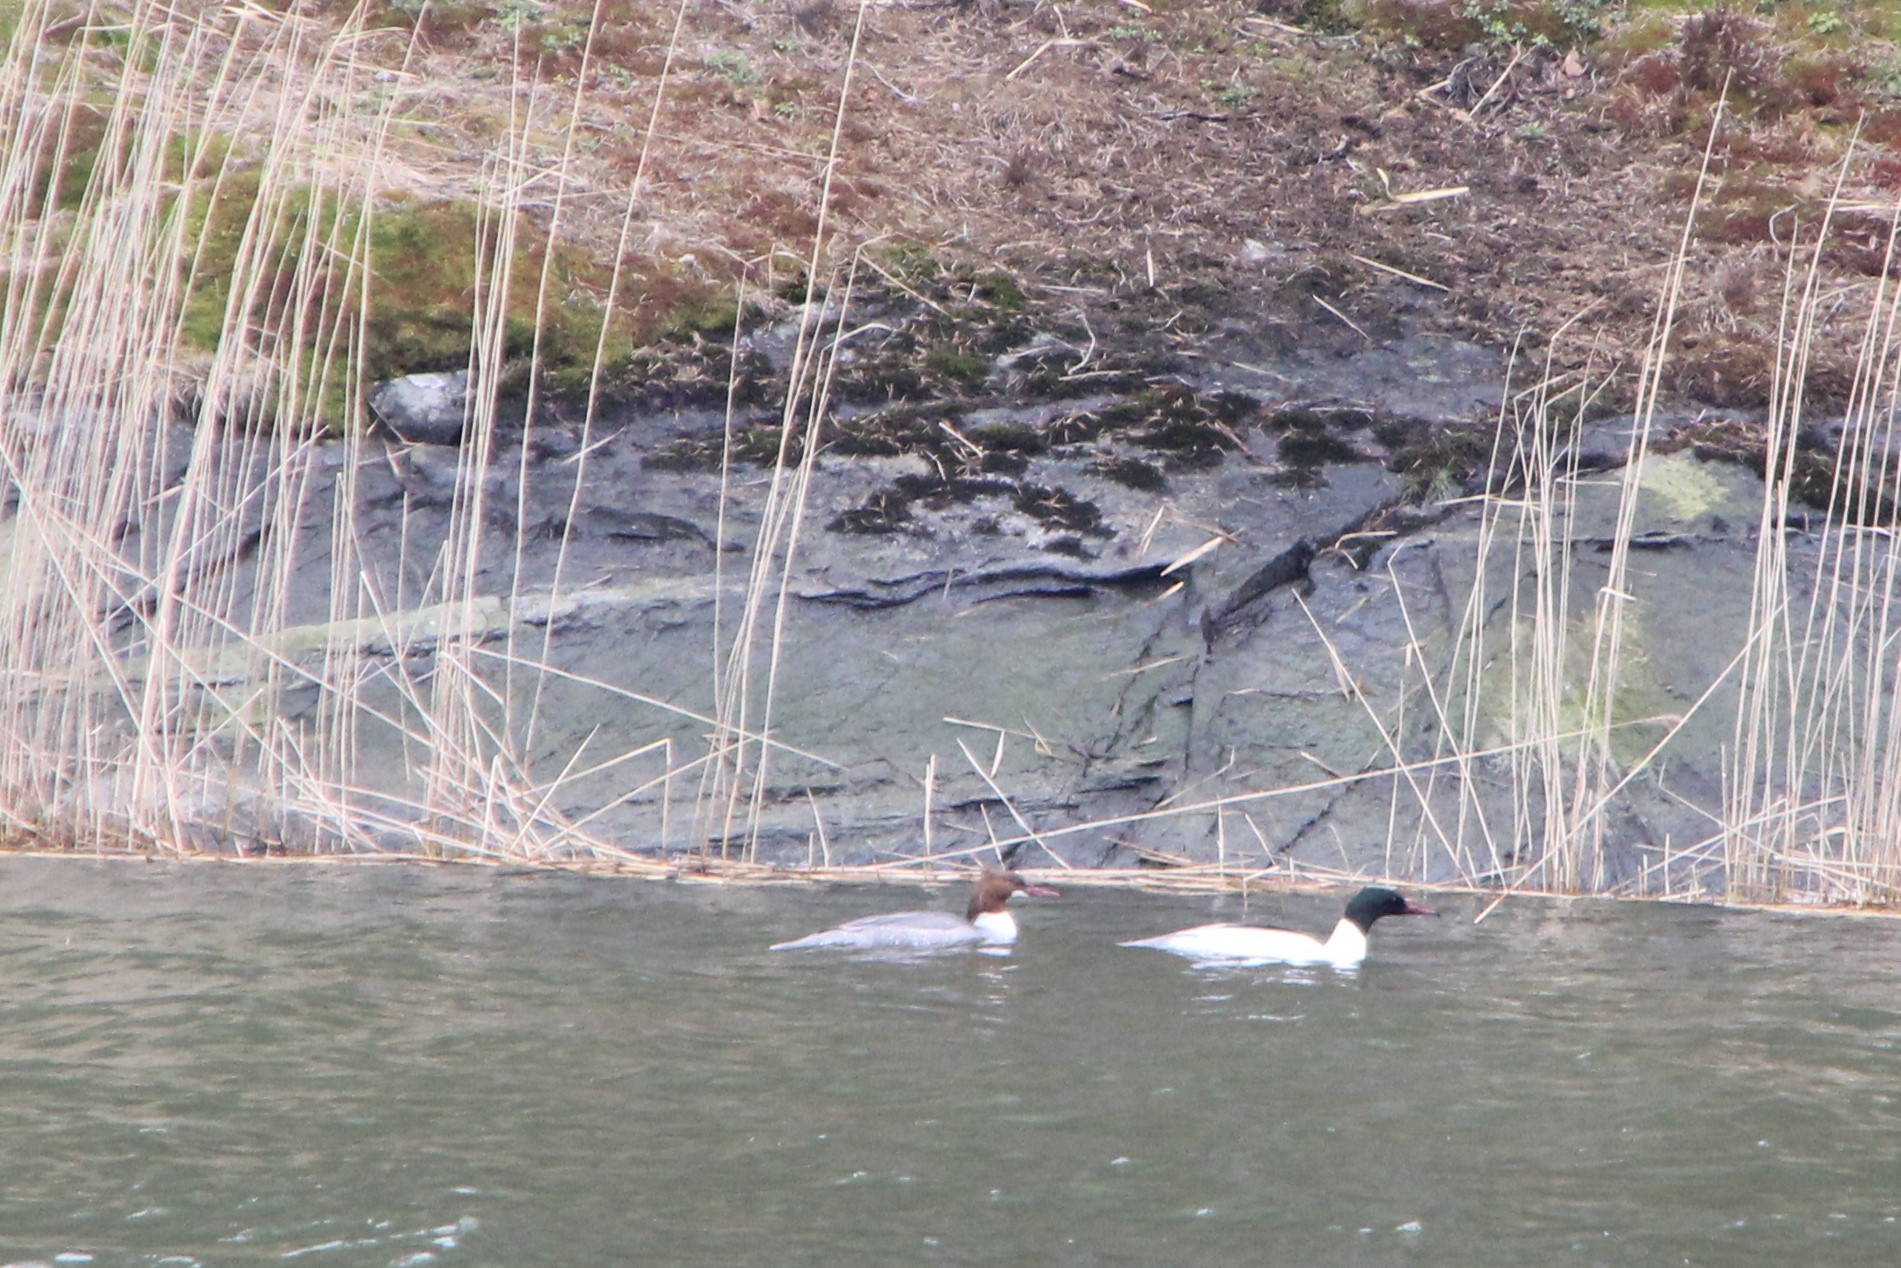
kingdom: Animalia
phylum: Chordata
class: Aves
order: Anseriformes
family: Anatidae
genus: Mergus
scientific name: Mergus merganser
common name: Common merganser
